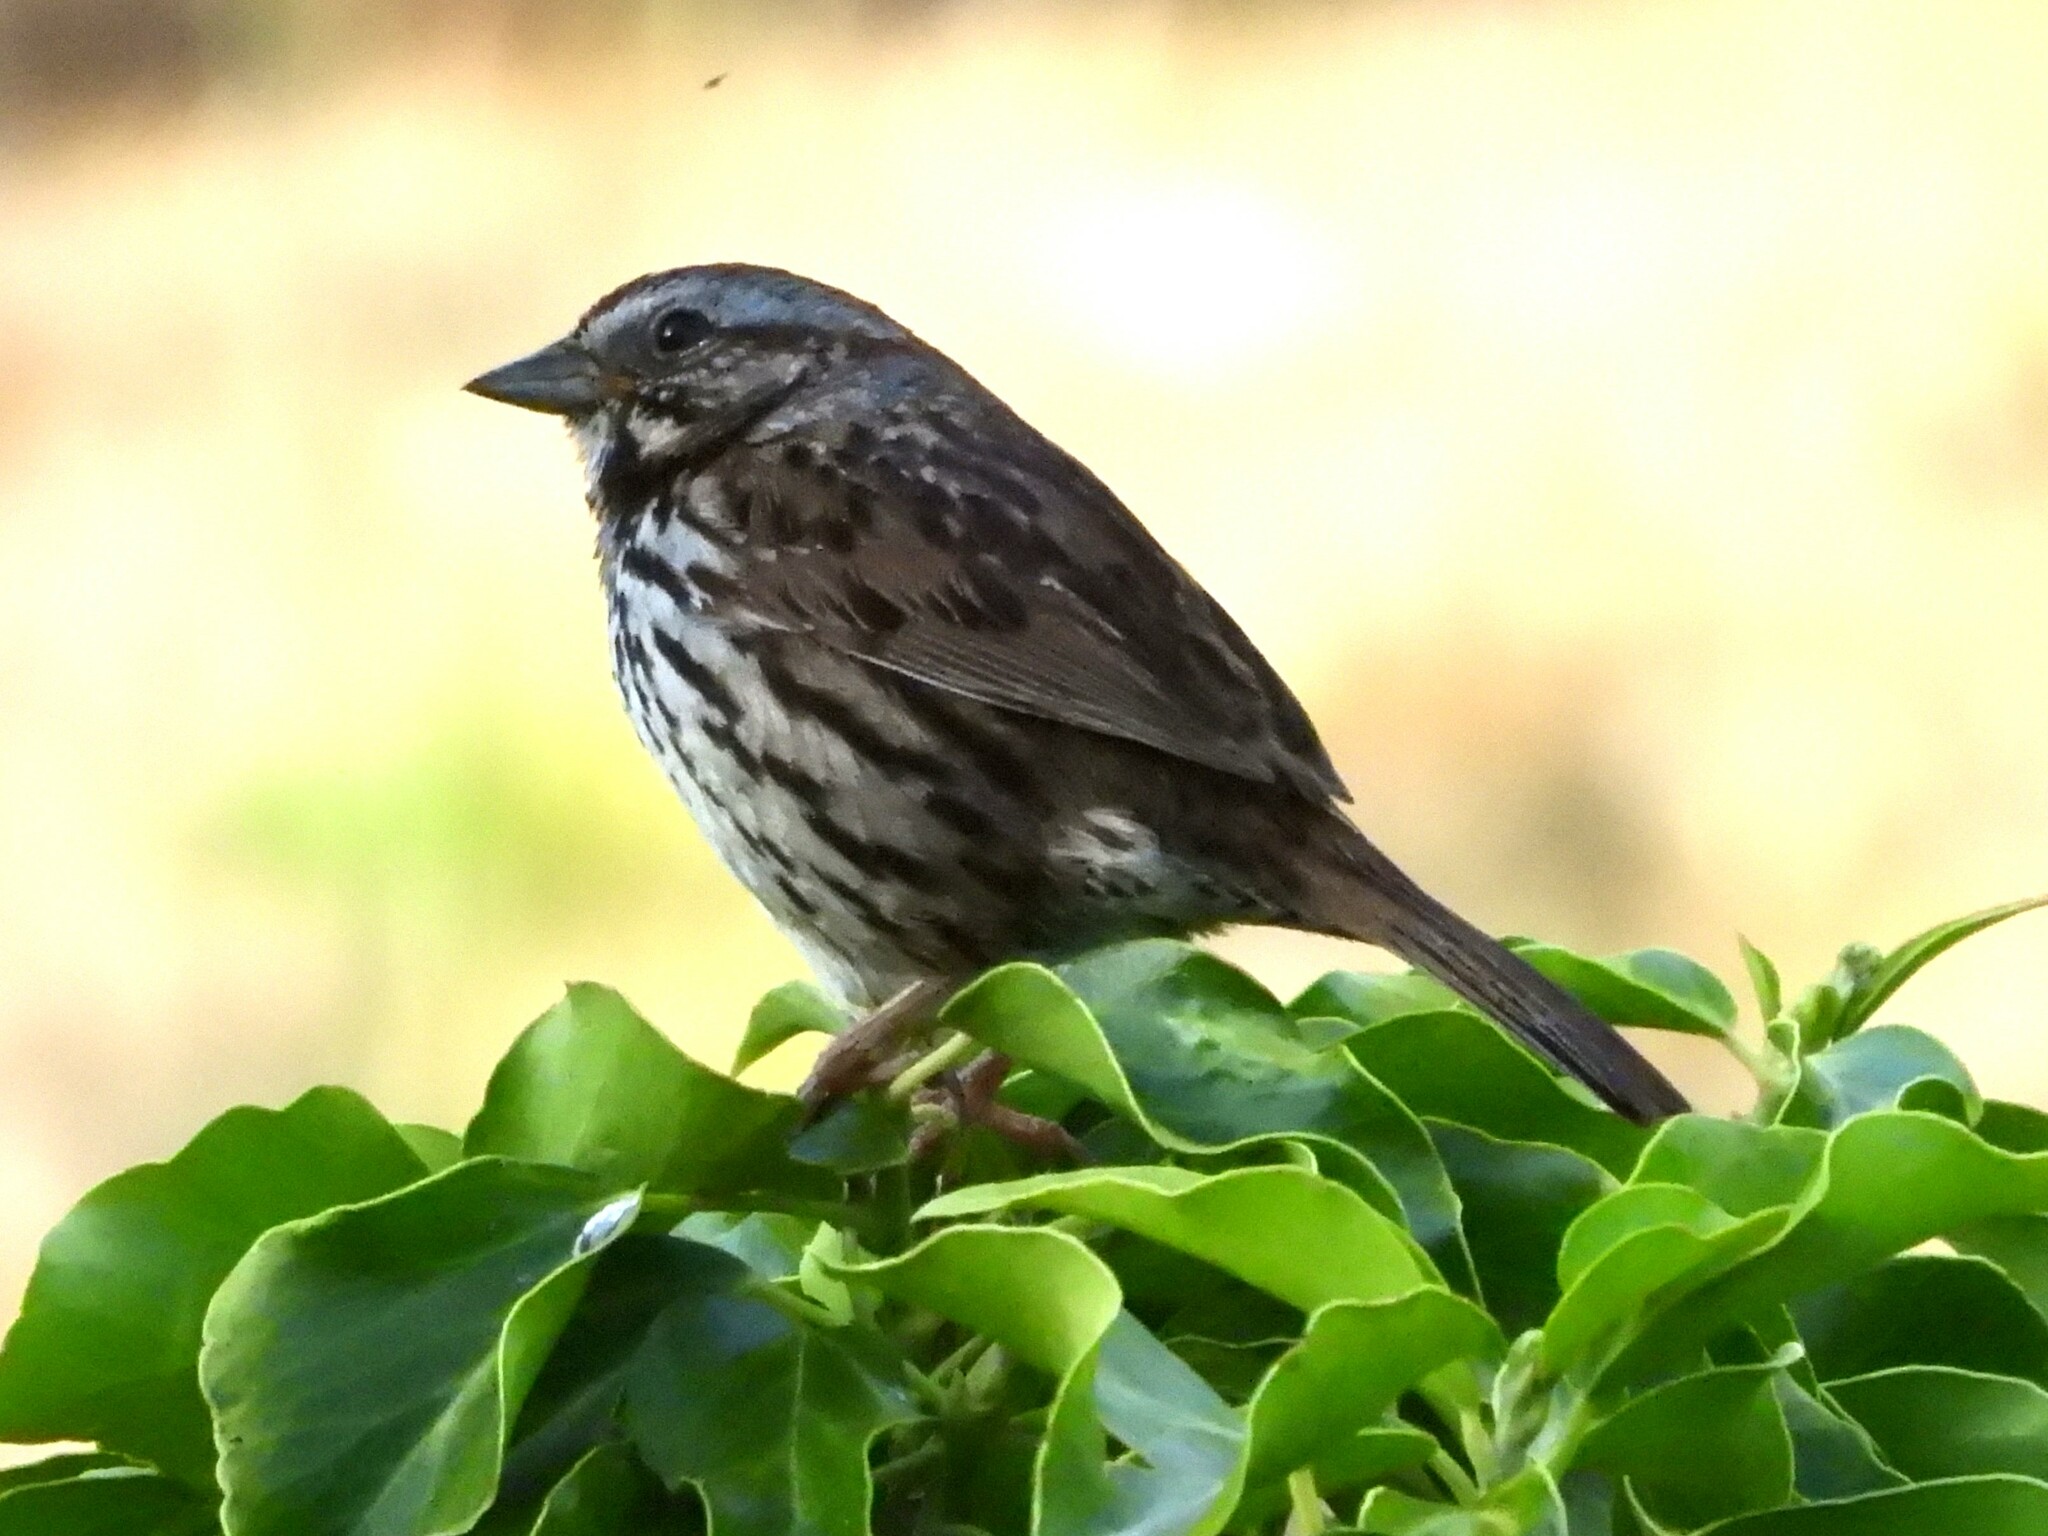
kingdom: Animalia
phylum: Chordata
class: Aves
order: Passeriformes
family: Passerellidae
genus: Melospiza
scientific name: Melospiza melodia
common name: Song sparrow
